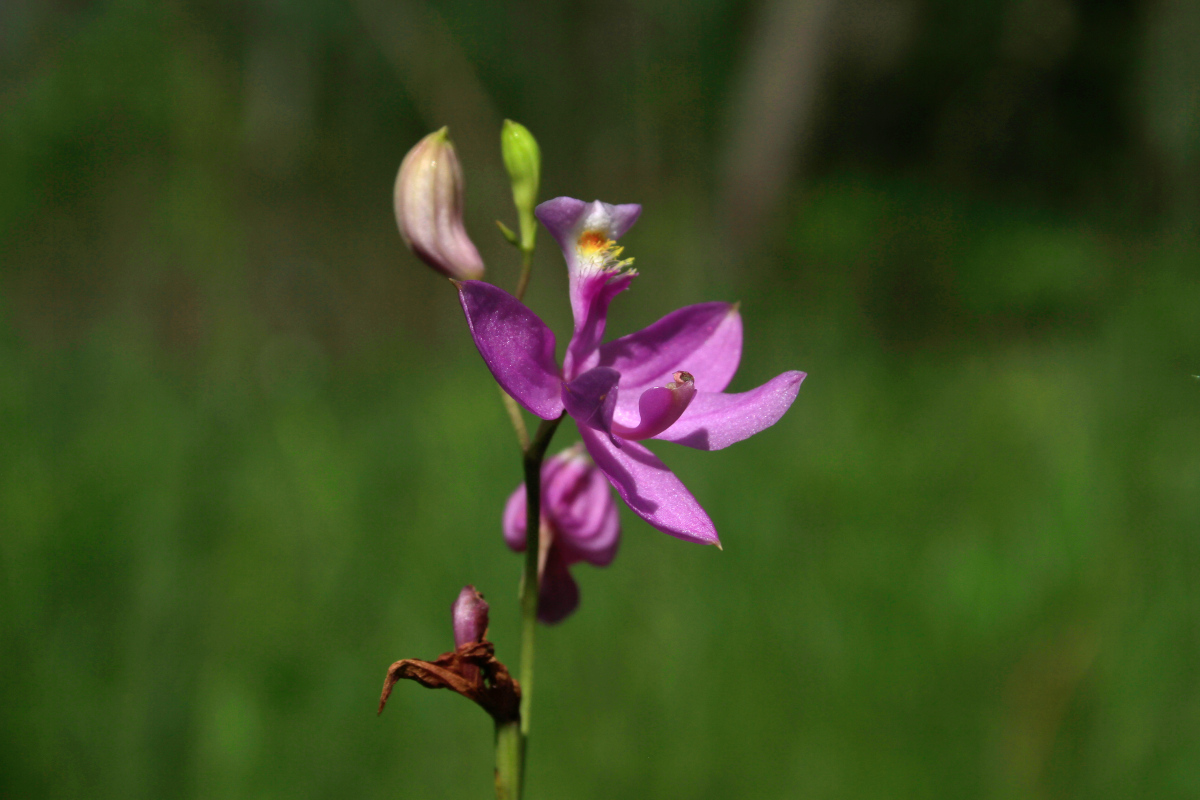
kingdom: Plantae
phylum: Tracheophyta
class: Liliopsida
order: Asparagales
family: Orchidaceae
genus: Calopogon
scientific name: Calopogon tuberosus
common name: Grass-pink
